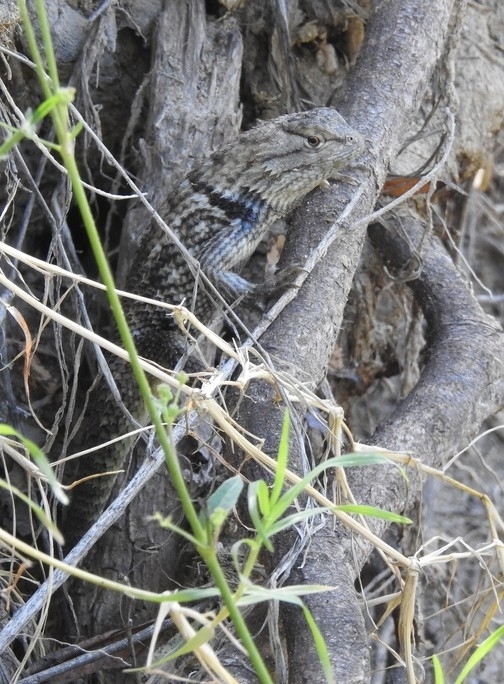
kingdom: Animalia
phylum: Chordata
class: Squamata
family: Phrynosomatidae
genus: Sceloporus
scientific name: Sceloporus magister
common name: Desert spiny lizard
